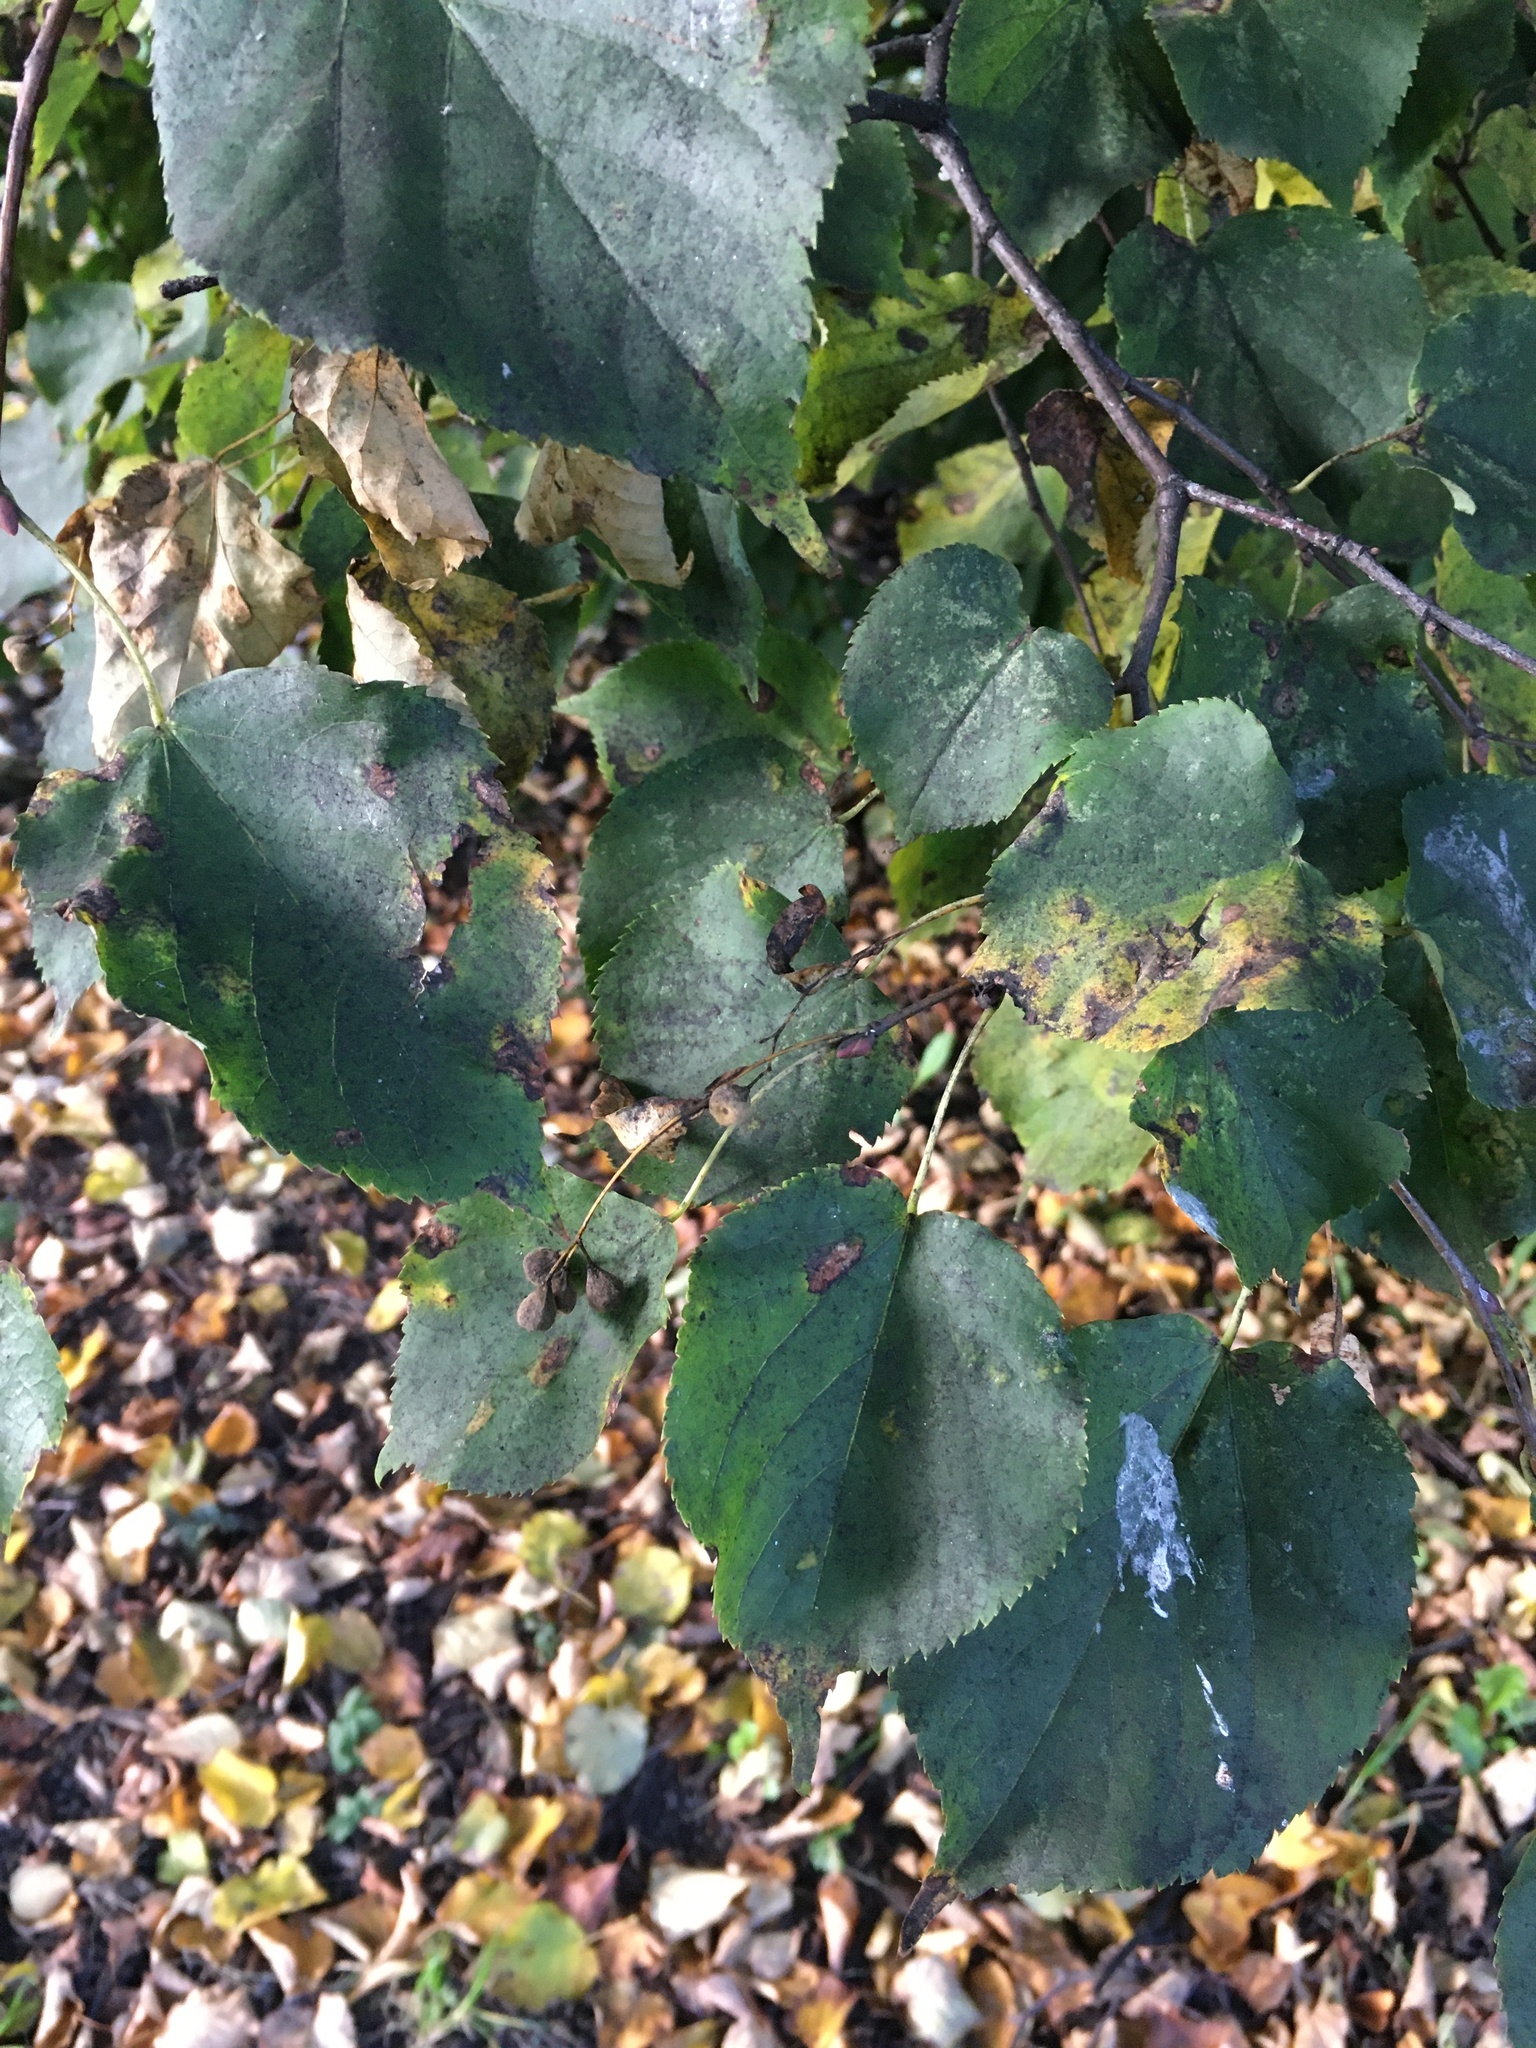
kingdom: Plantae
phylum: Tracheophyta
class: Magnoliopsida
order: Malvales
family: Malvaceae
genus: Tilia
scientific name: Tilia cordata
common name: Small-leaved lime
